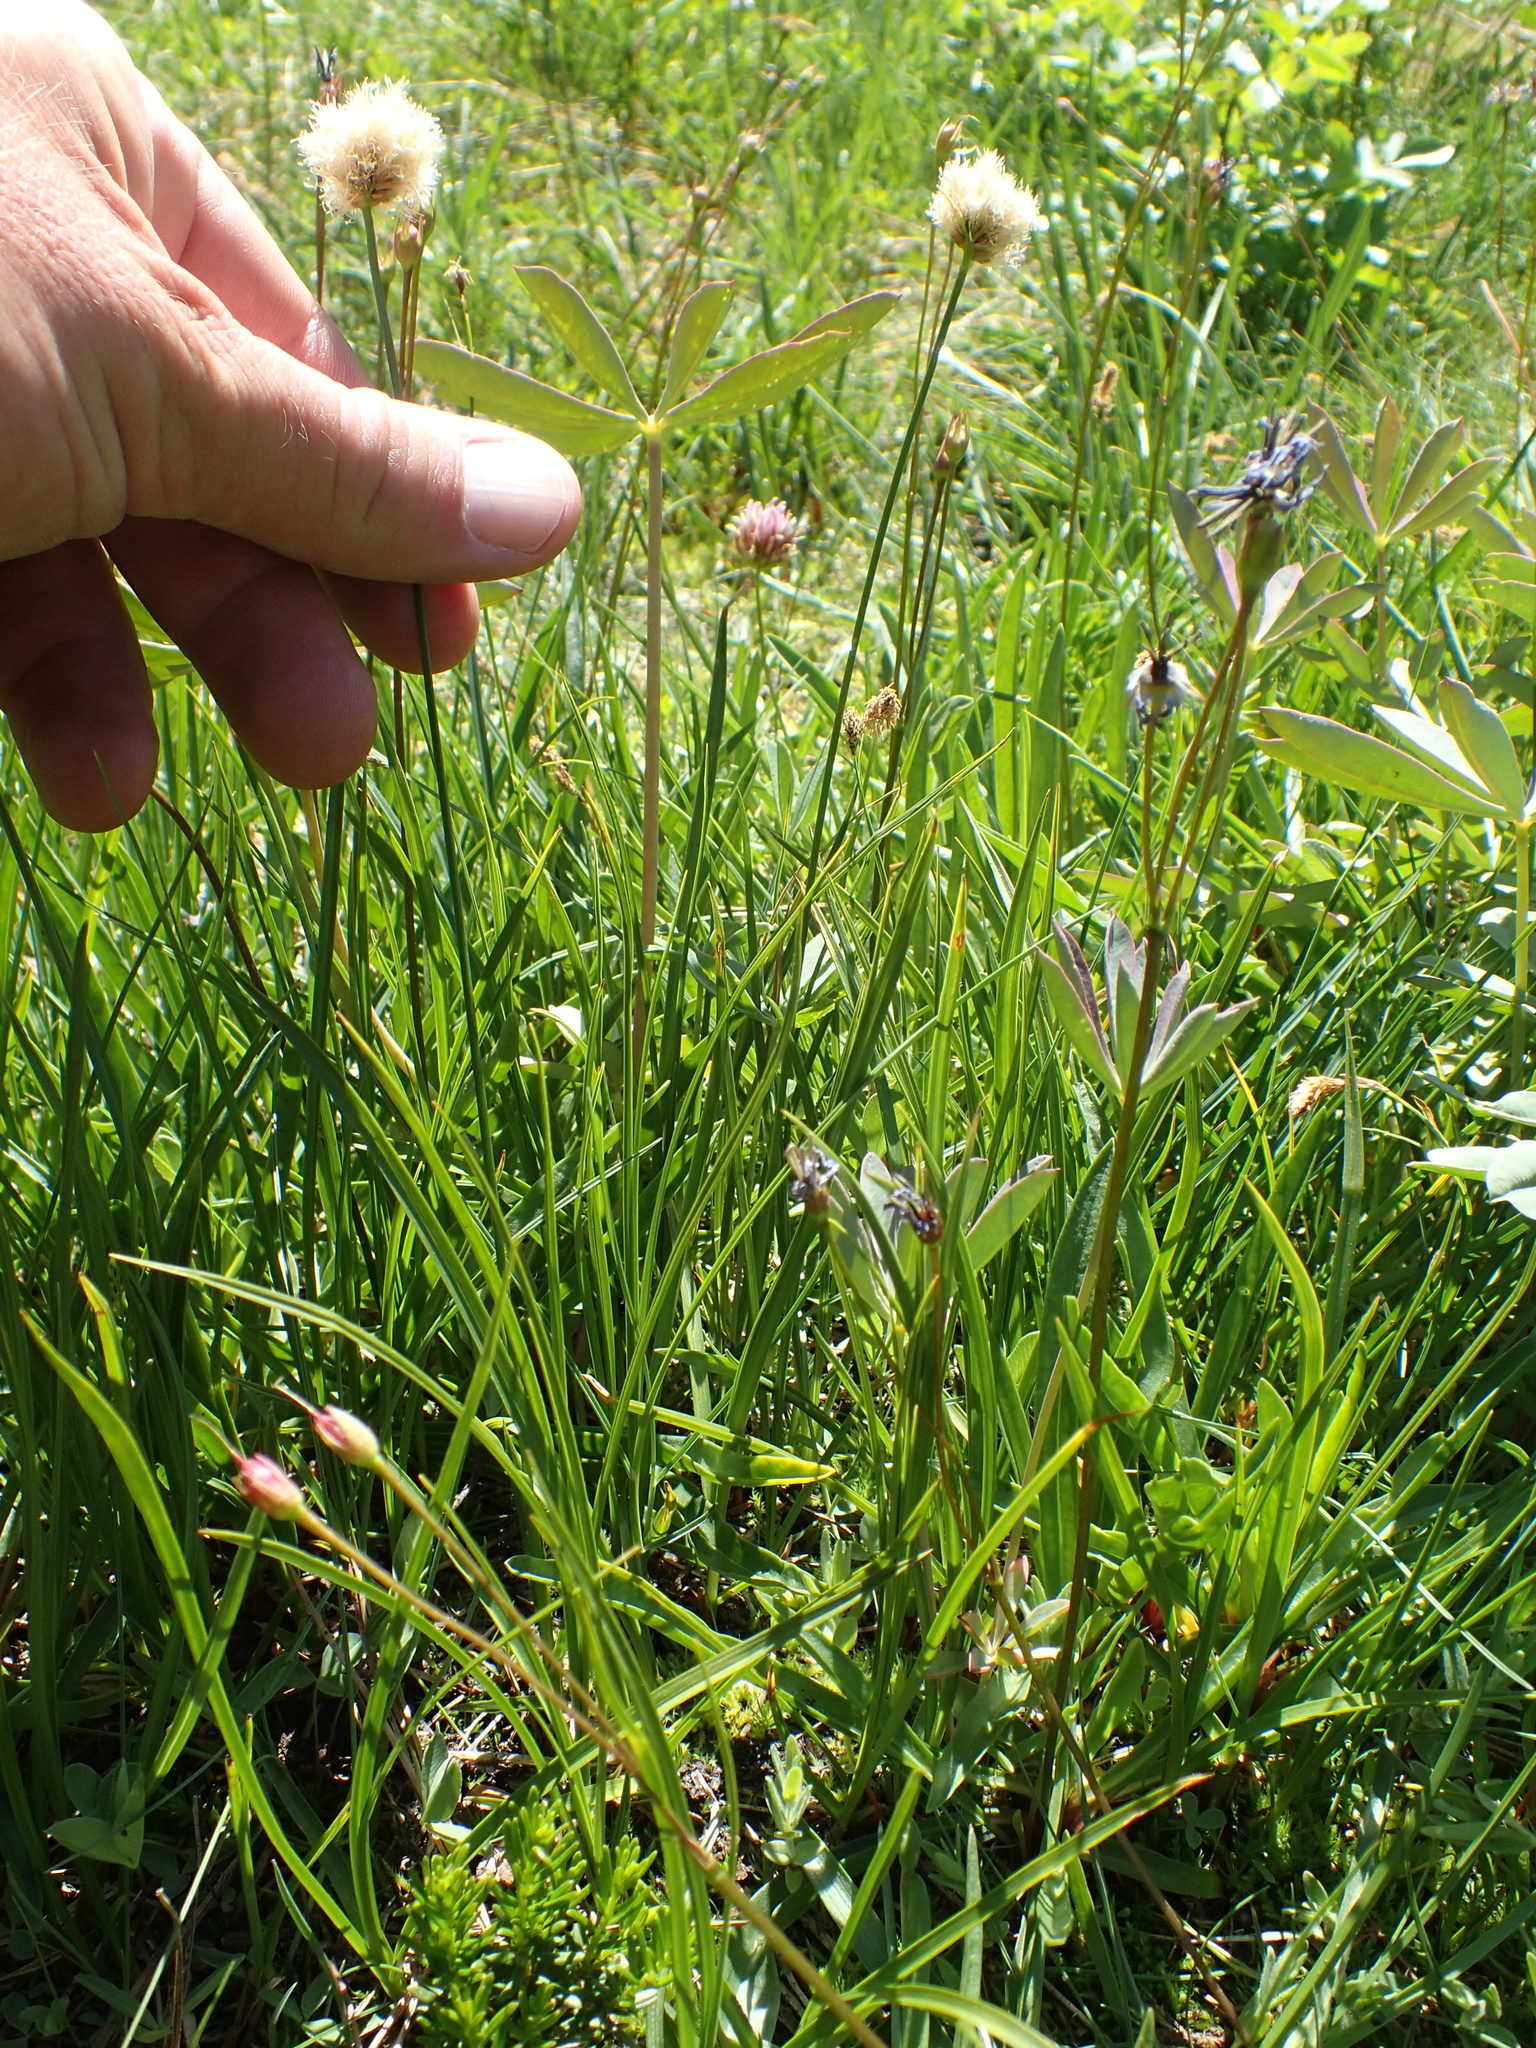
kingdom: Plantae
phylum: Tracheophyta
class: Liliopsida
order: Poales
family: Cyperaceae
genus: Calliscirpus
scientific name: Calliscirpus criniger
